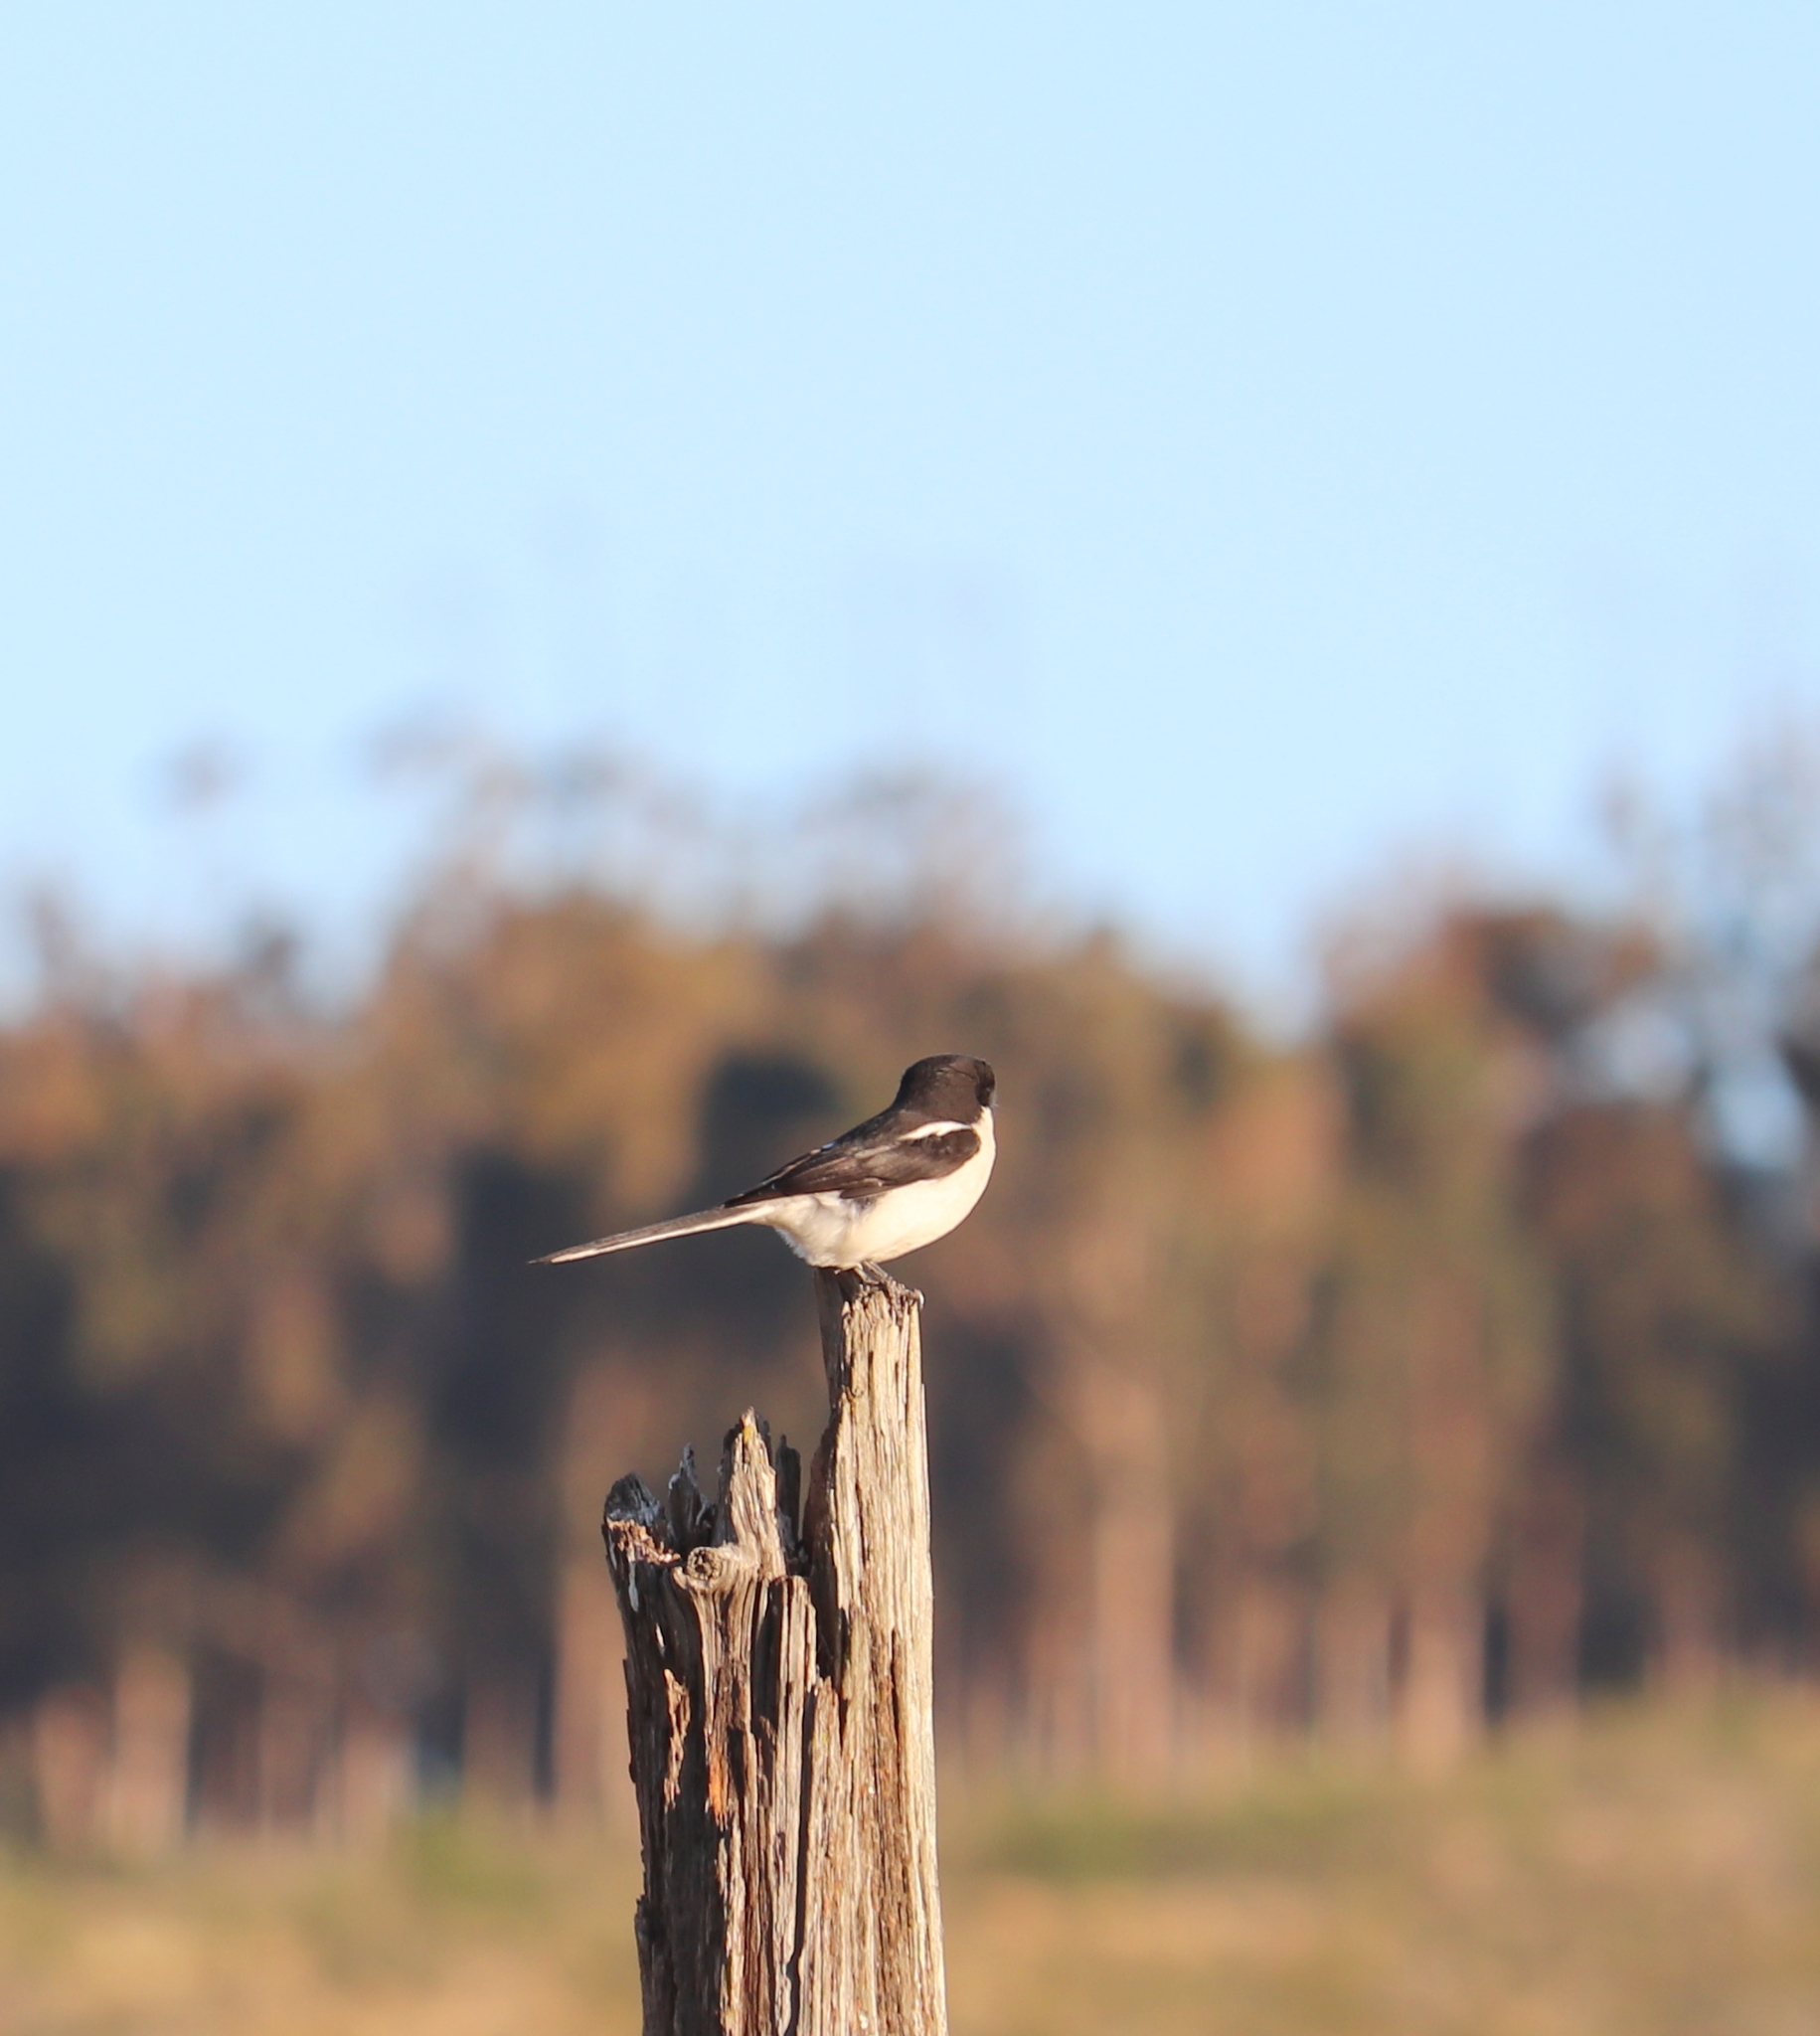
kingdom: Animalia
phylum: Chordata
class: Aves
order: Passeriformes
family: Laniidae
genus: Lanius
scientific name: Lanius collaris
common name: Southern fiscal
